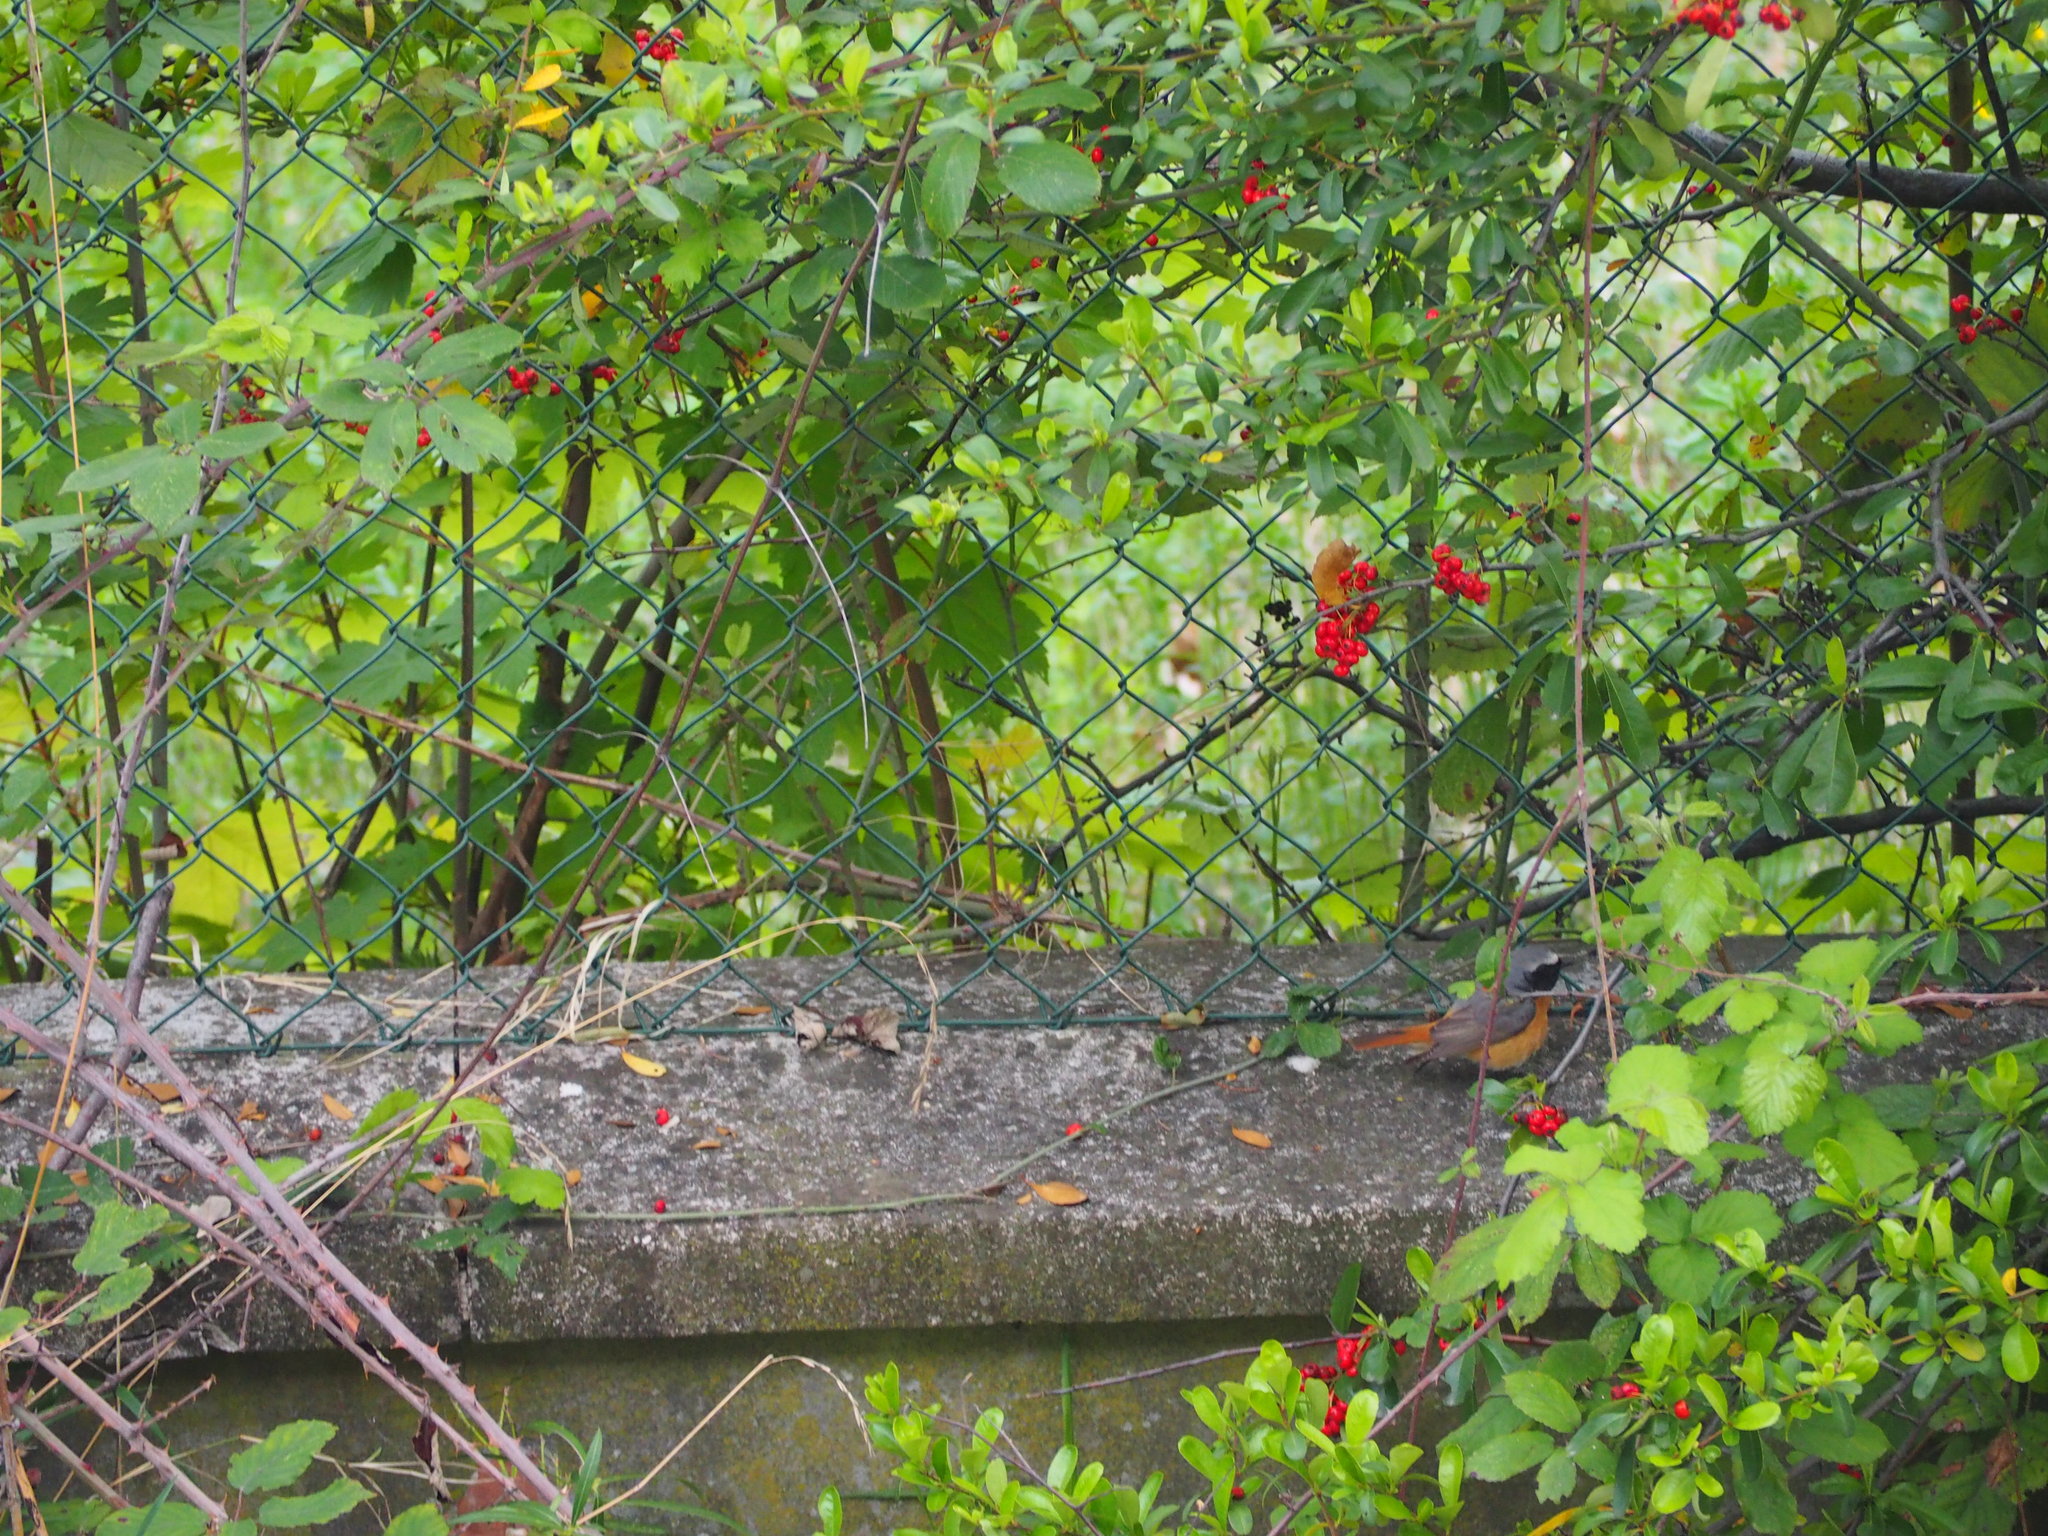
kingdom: Animalia
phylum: Chordata
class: Aves
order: Passeriformes
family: Muscicapidae
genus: Phoenicurus
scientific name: Phoenicurus phoenicurus
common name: Common redstart
